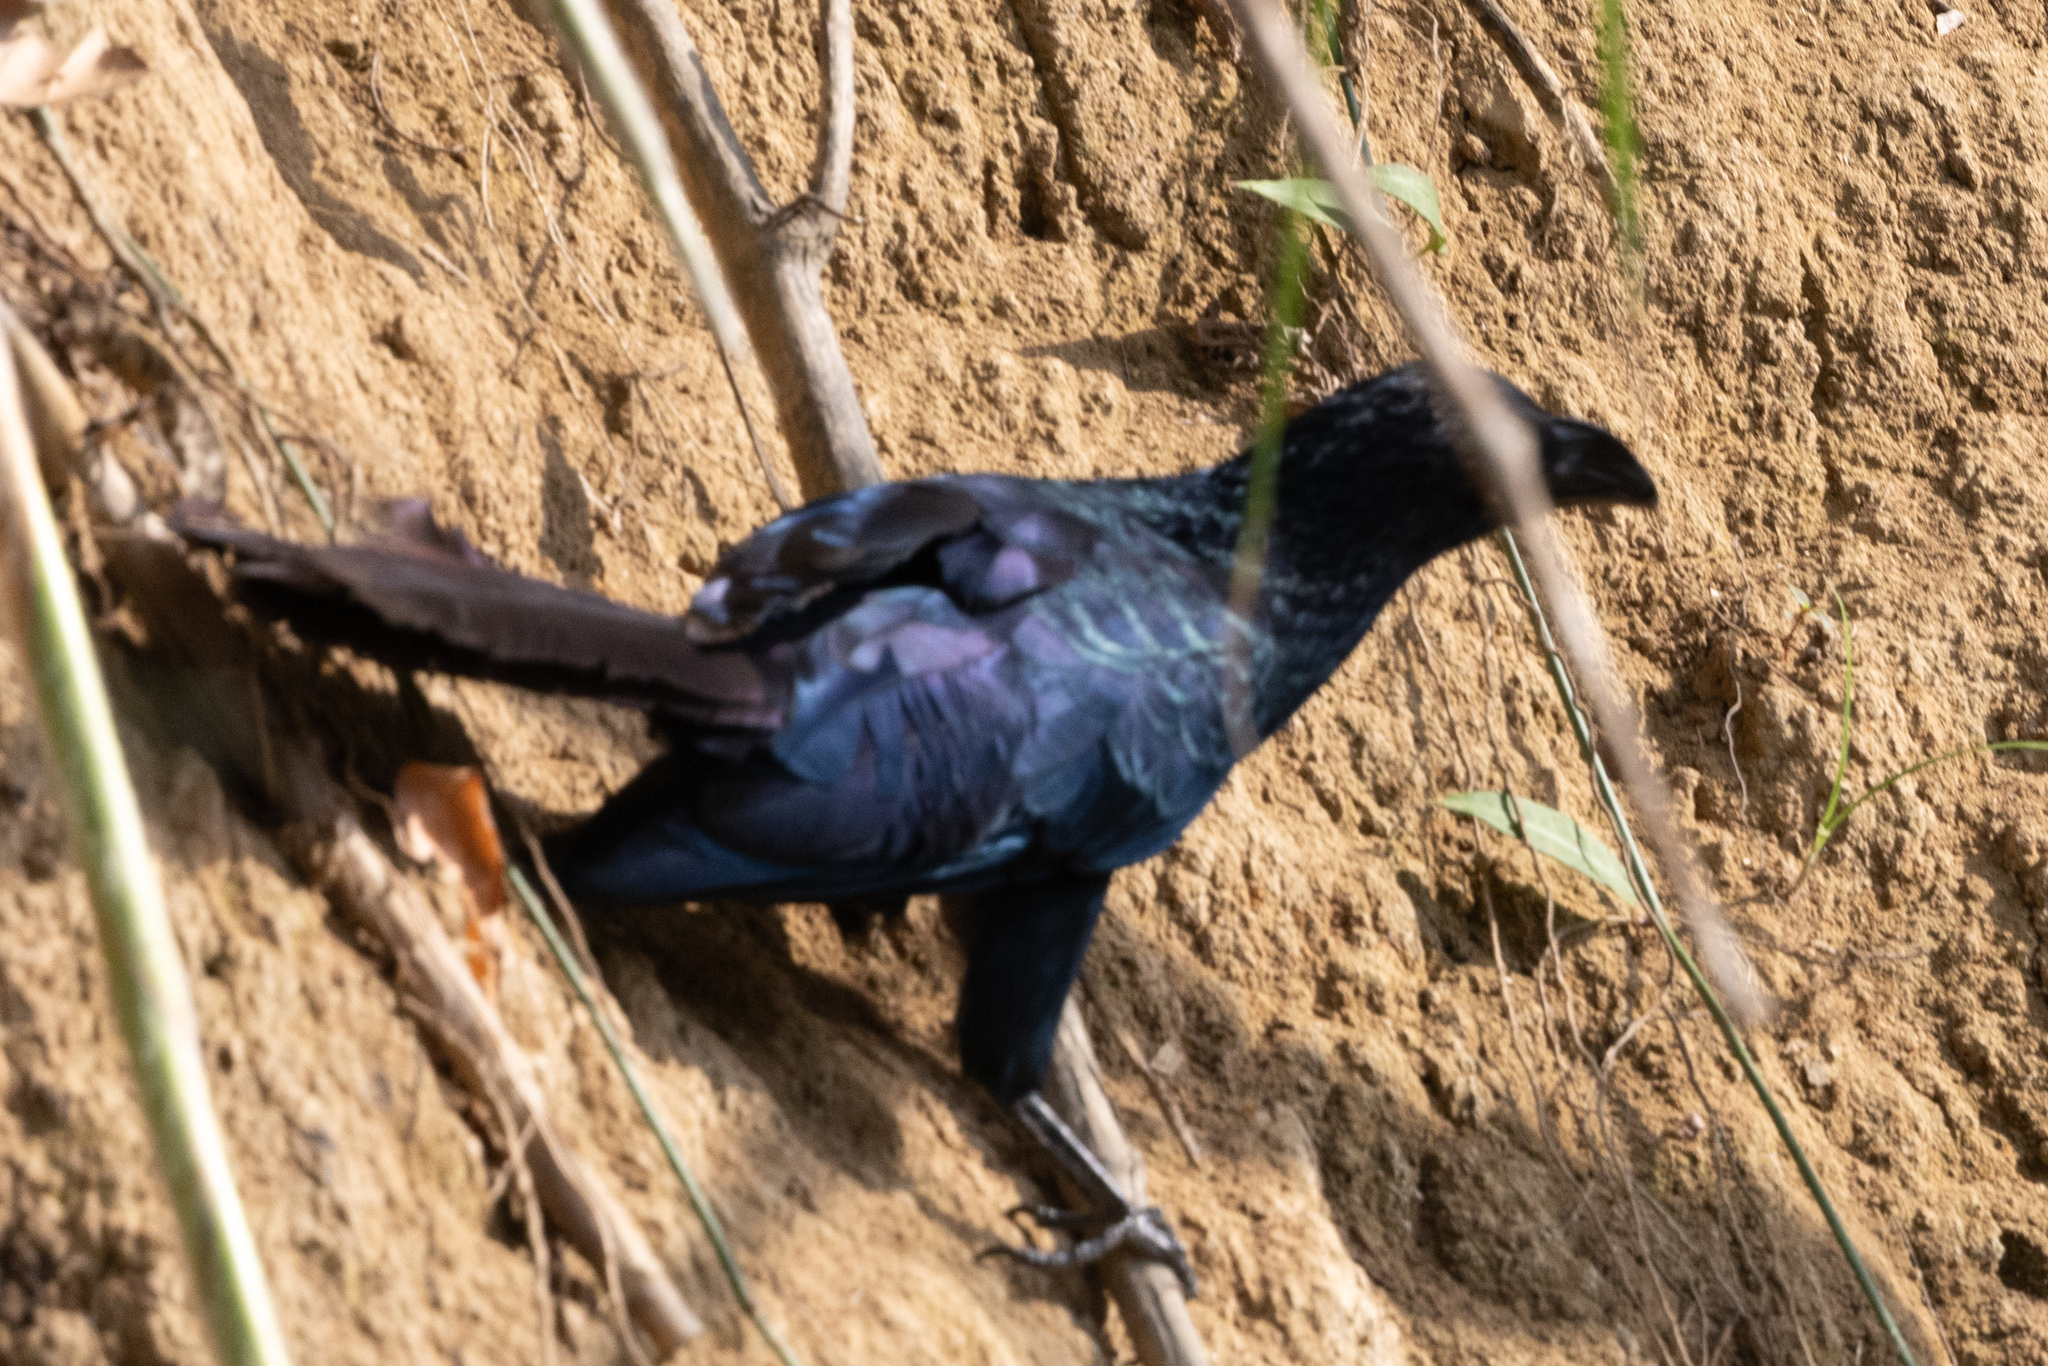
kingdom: Animalia
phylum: Chordata
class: Aves
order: Cuculiformes
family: Cuculidae
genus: Crotophaga
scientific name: Crotophaga major
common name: Greater ani
